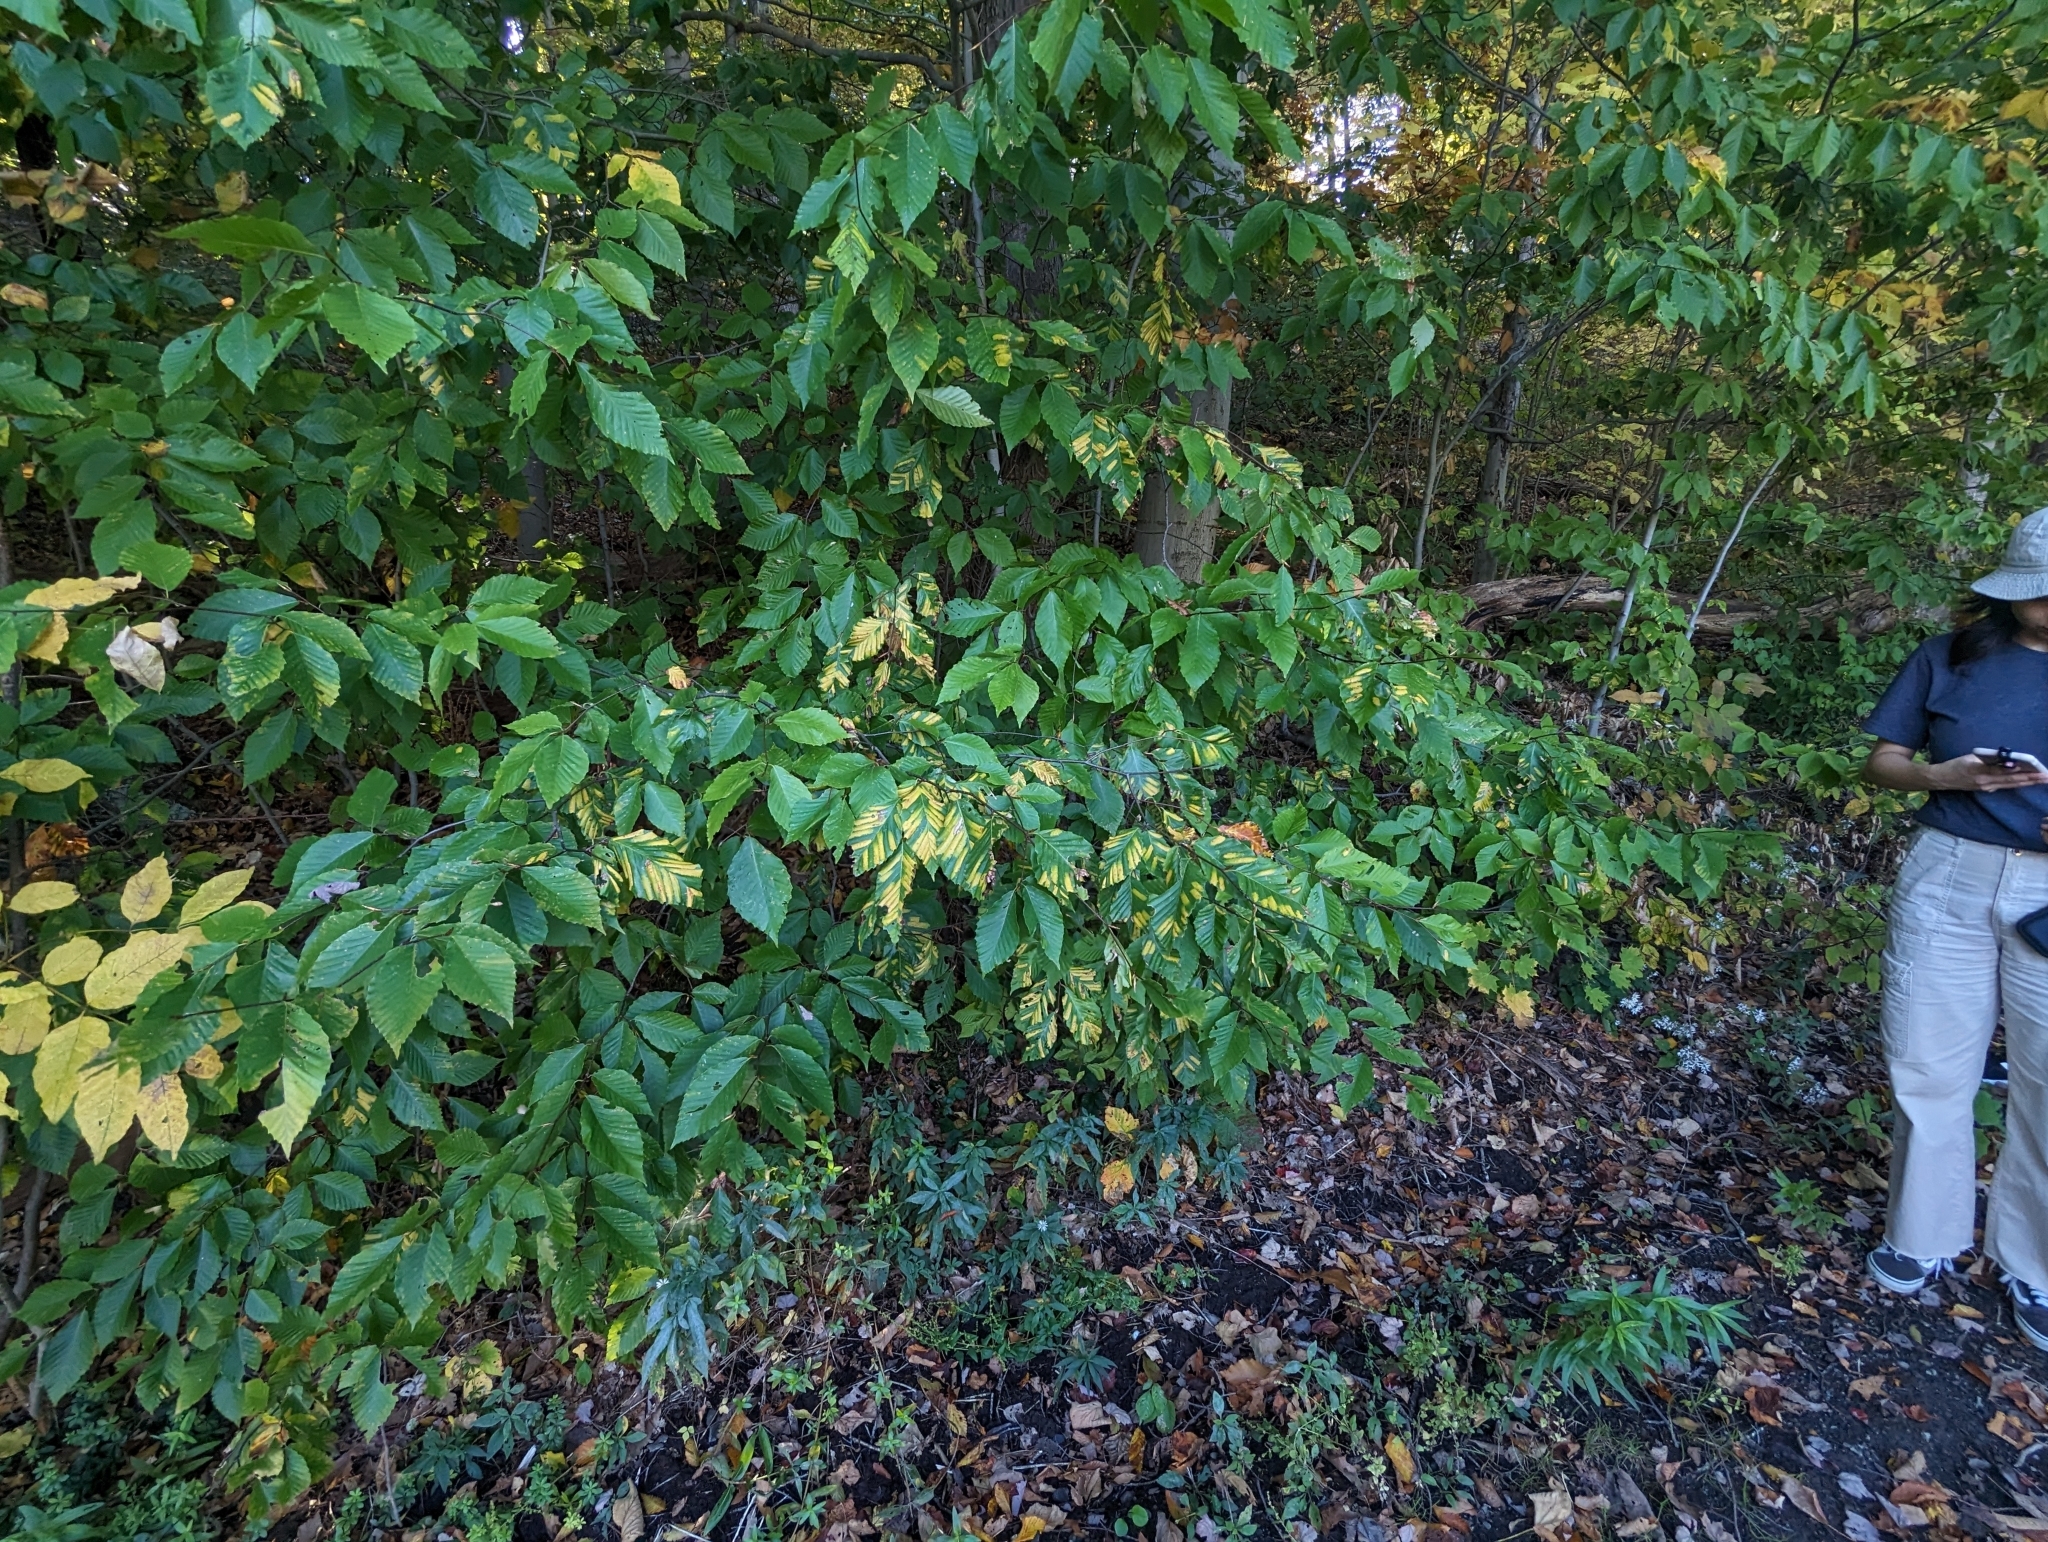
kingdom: Animalia
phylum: Nematoda
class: Chromadorea
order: Rhabditida
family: Anguinidae
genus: Litylenchus
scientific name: Litylenchus crenatae
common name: Beech leaf disease
